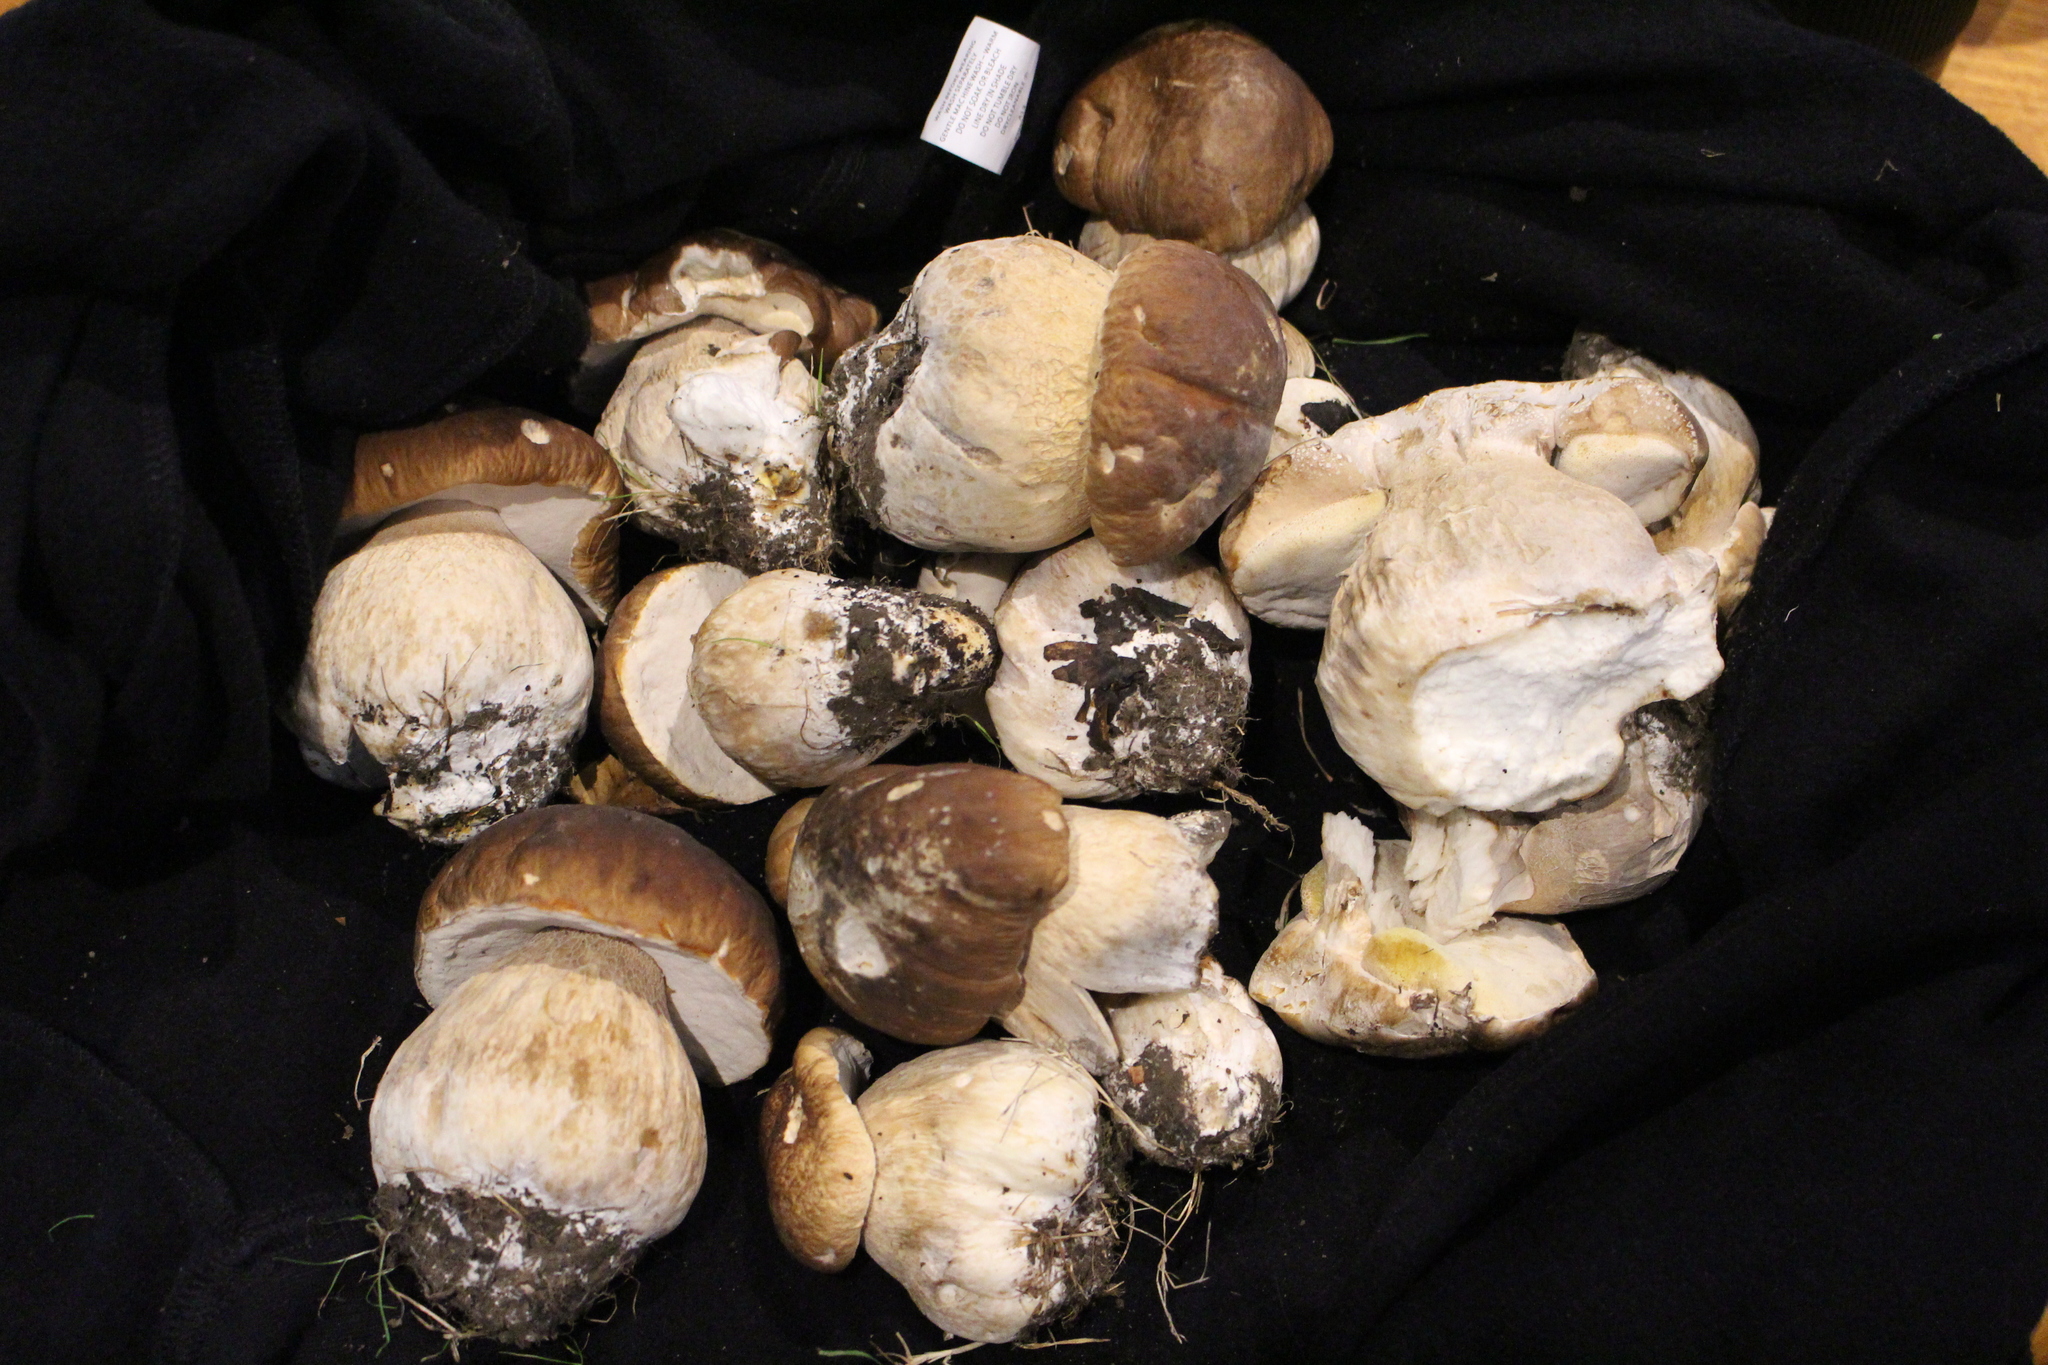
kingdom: Fungi
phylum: Basidiomycota
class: Agaricomycetes
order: Boletales
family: Boletaceae
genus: Boletus
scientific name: Boletus edulis
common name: Cep
